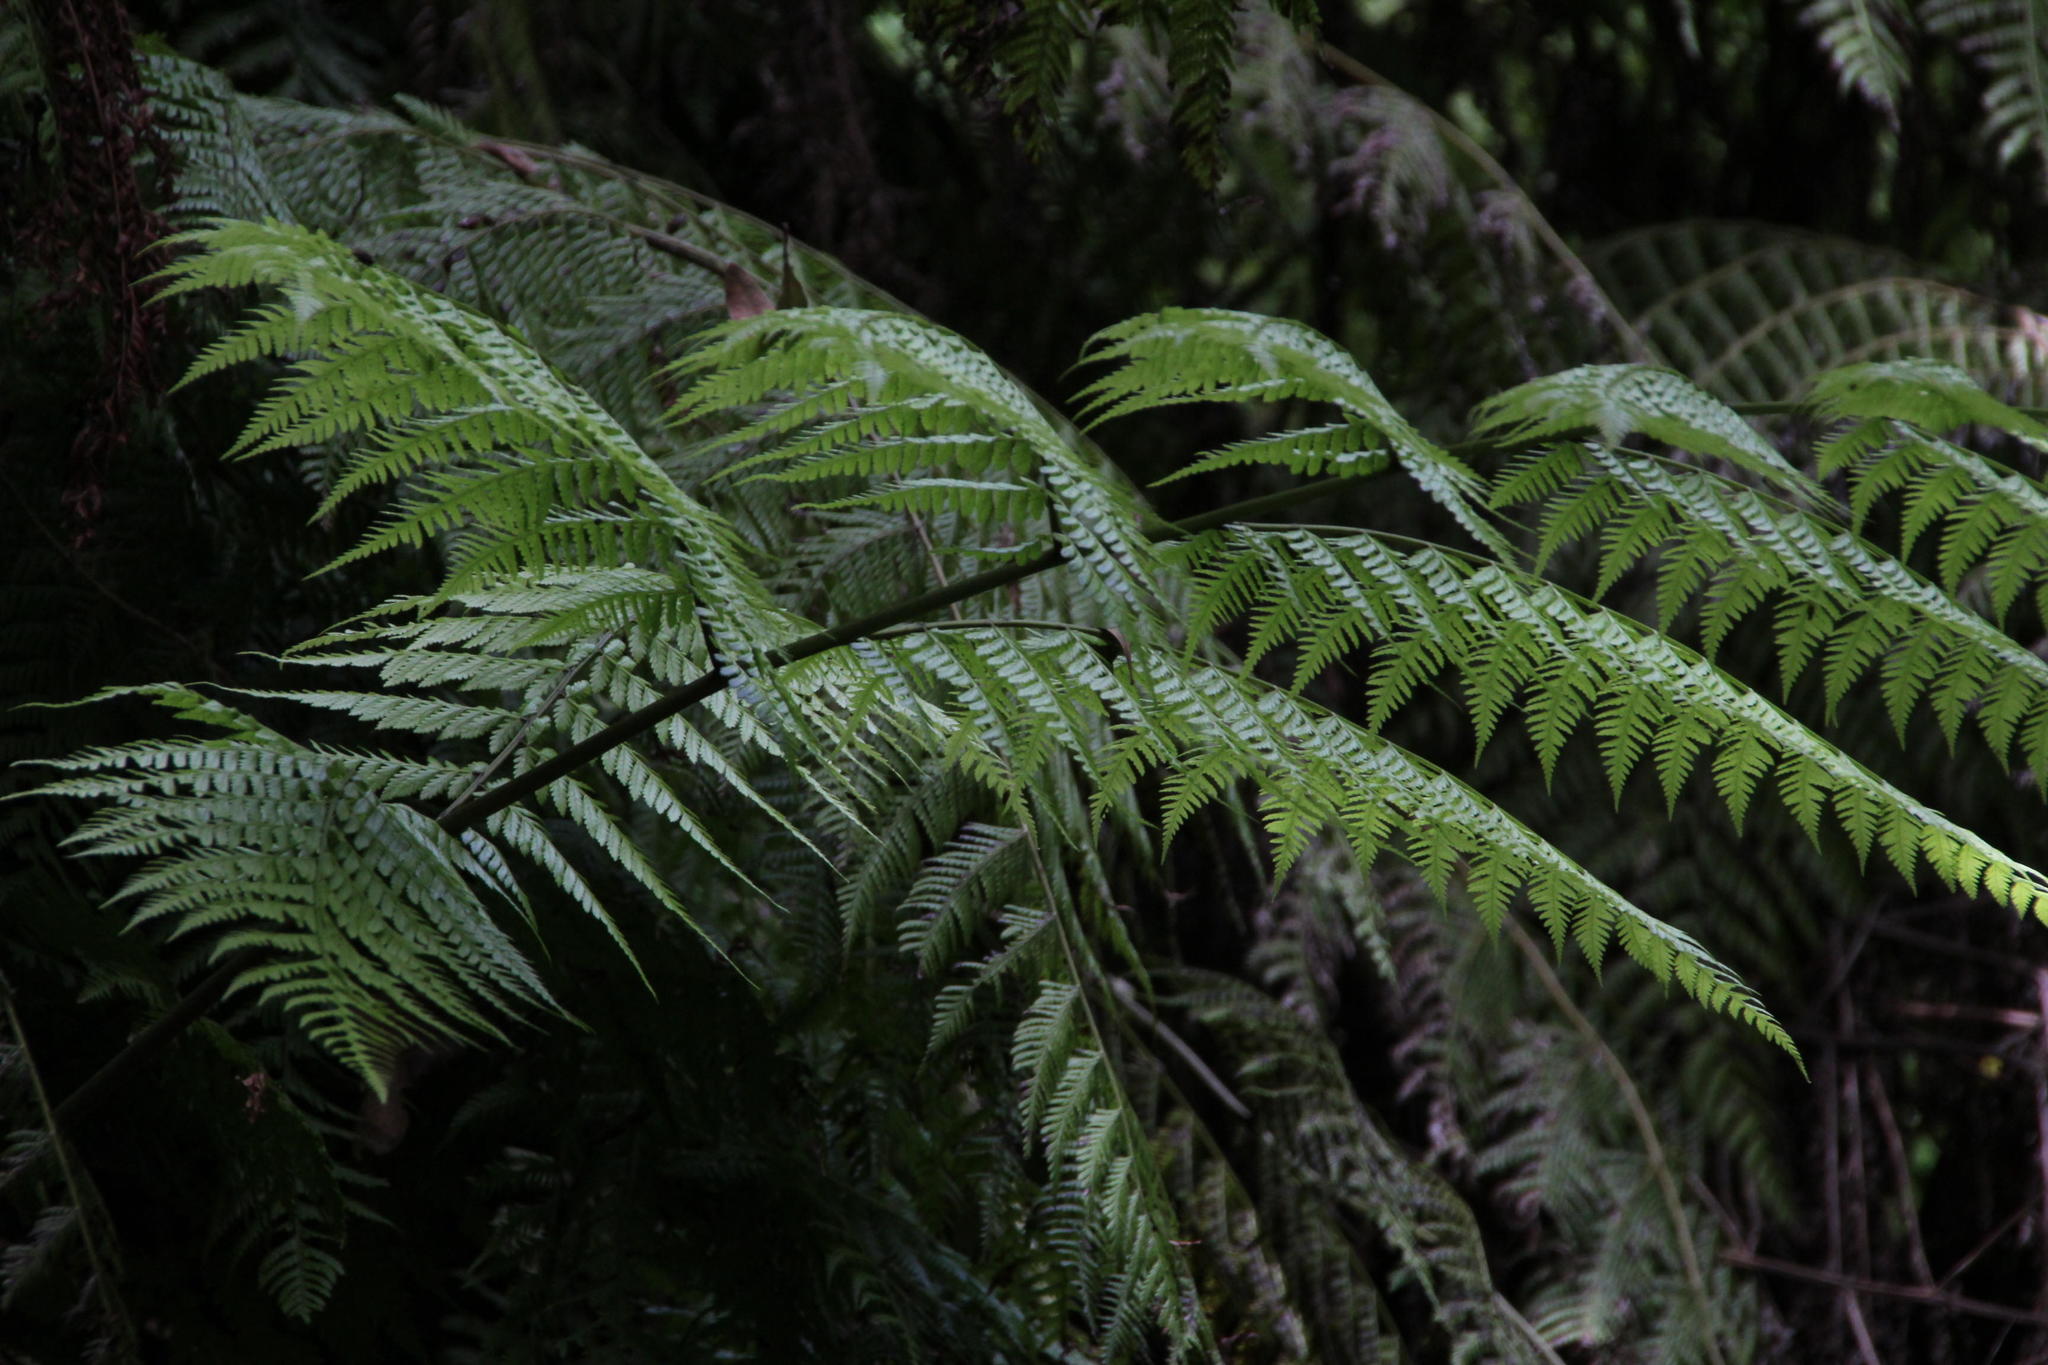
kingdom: Plantae
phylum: Tracheophyta
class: Polypodiopsida
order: Polypodiales
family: Athyriaceae
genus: Diplazium
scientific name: Diplazium caudatum
